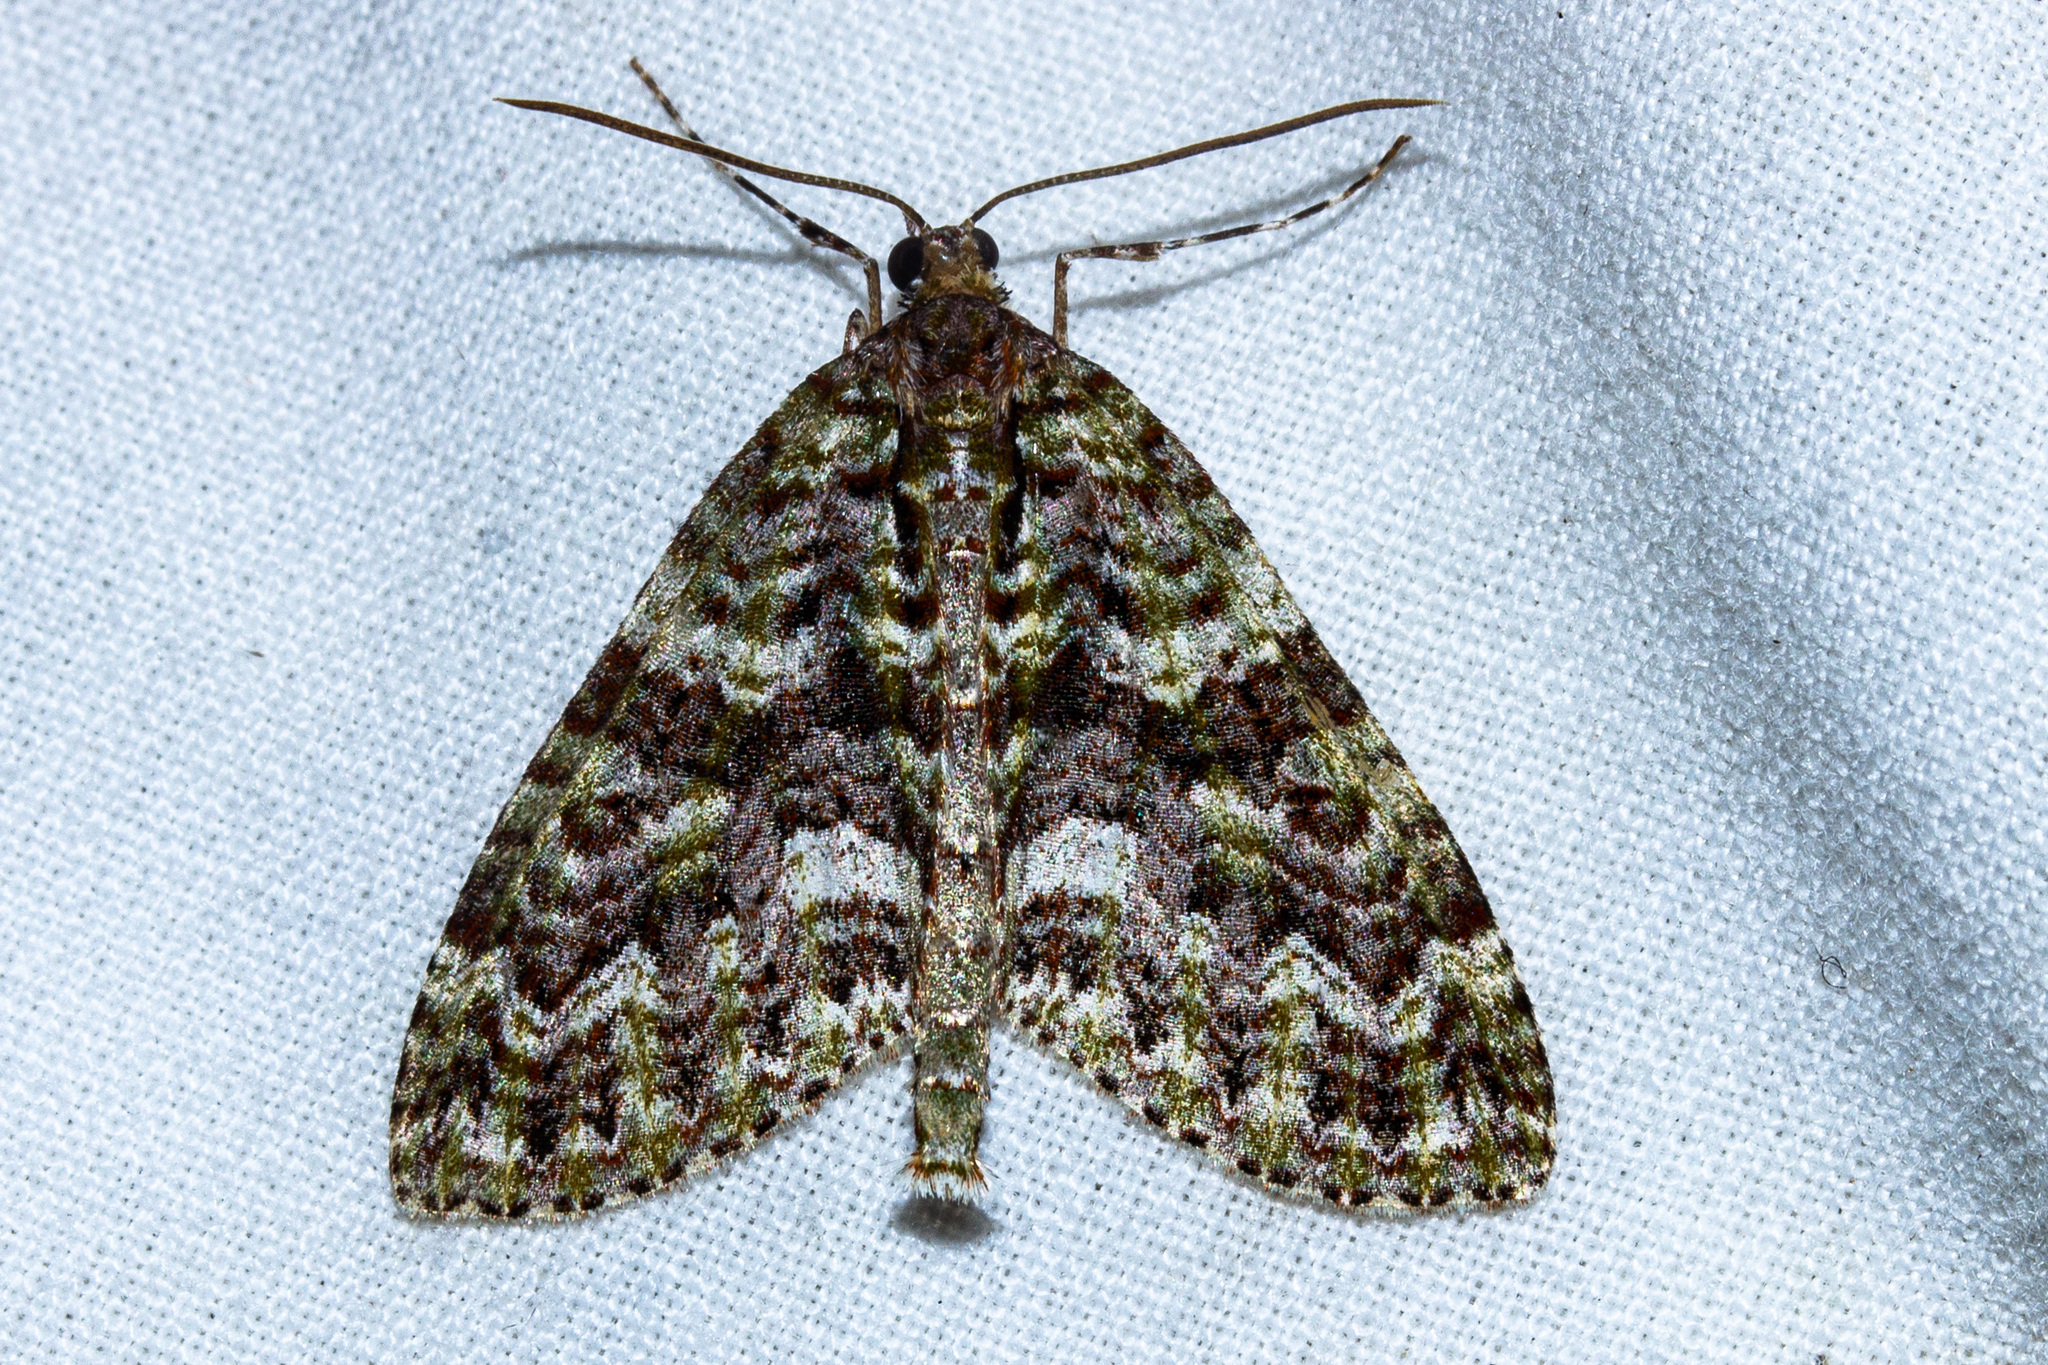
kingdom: Animalia
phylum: Arthropoda
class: Insecta
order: Lepidoptera
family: Geometridae
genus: Tatosoma
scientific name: Tatosoma agrionata
